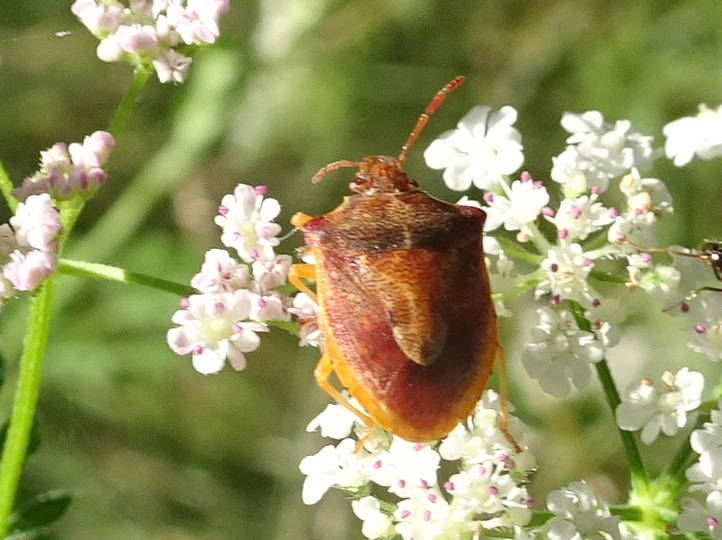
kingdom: Animalia
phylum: Arthropoda
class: Insecta
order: Hemiptera
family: Pentatomidae
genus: Dendrocoris
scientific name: Dendrocoris humeralis
